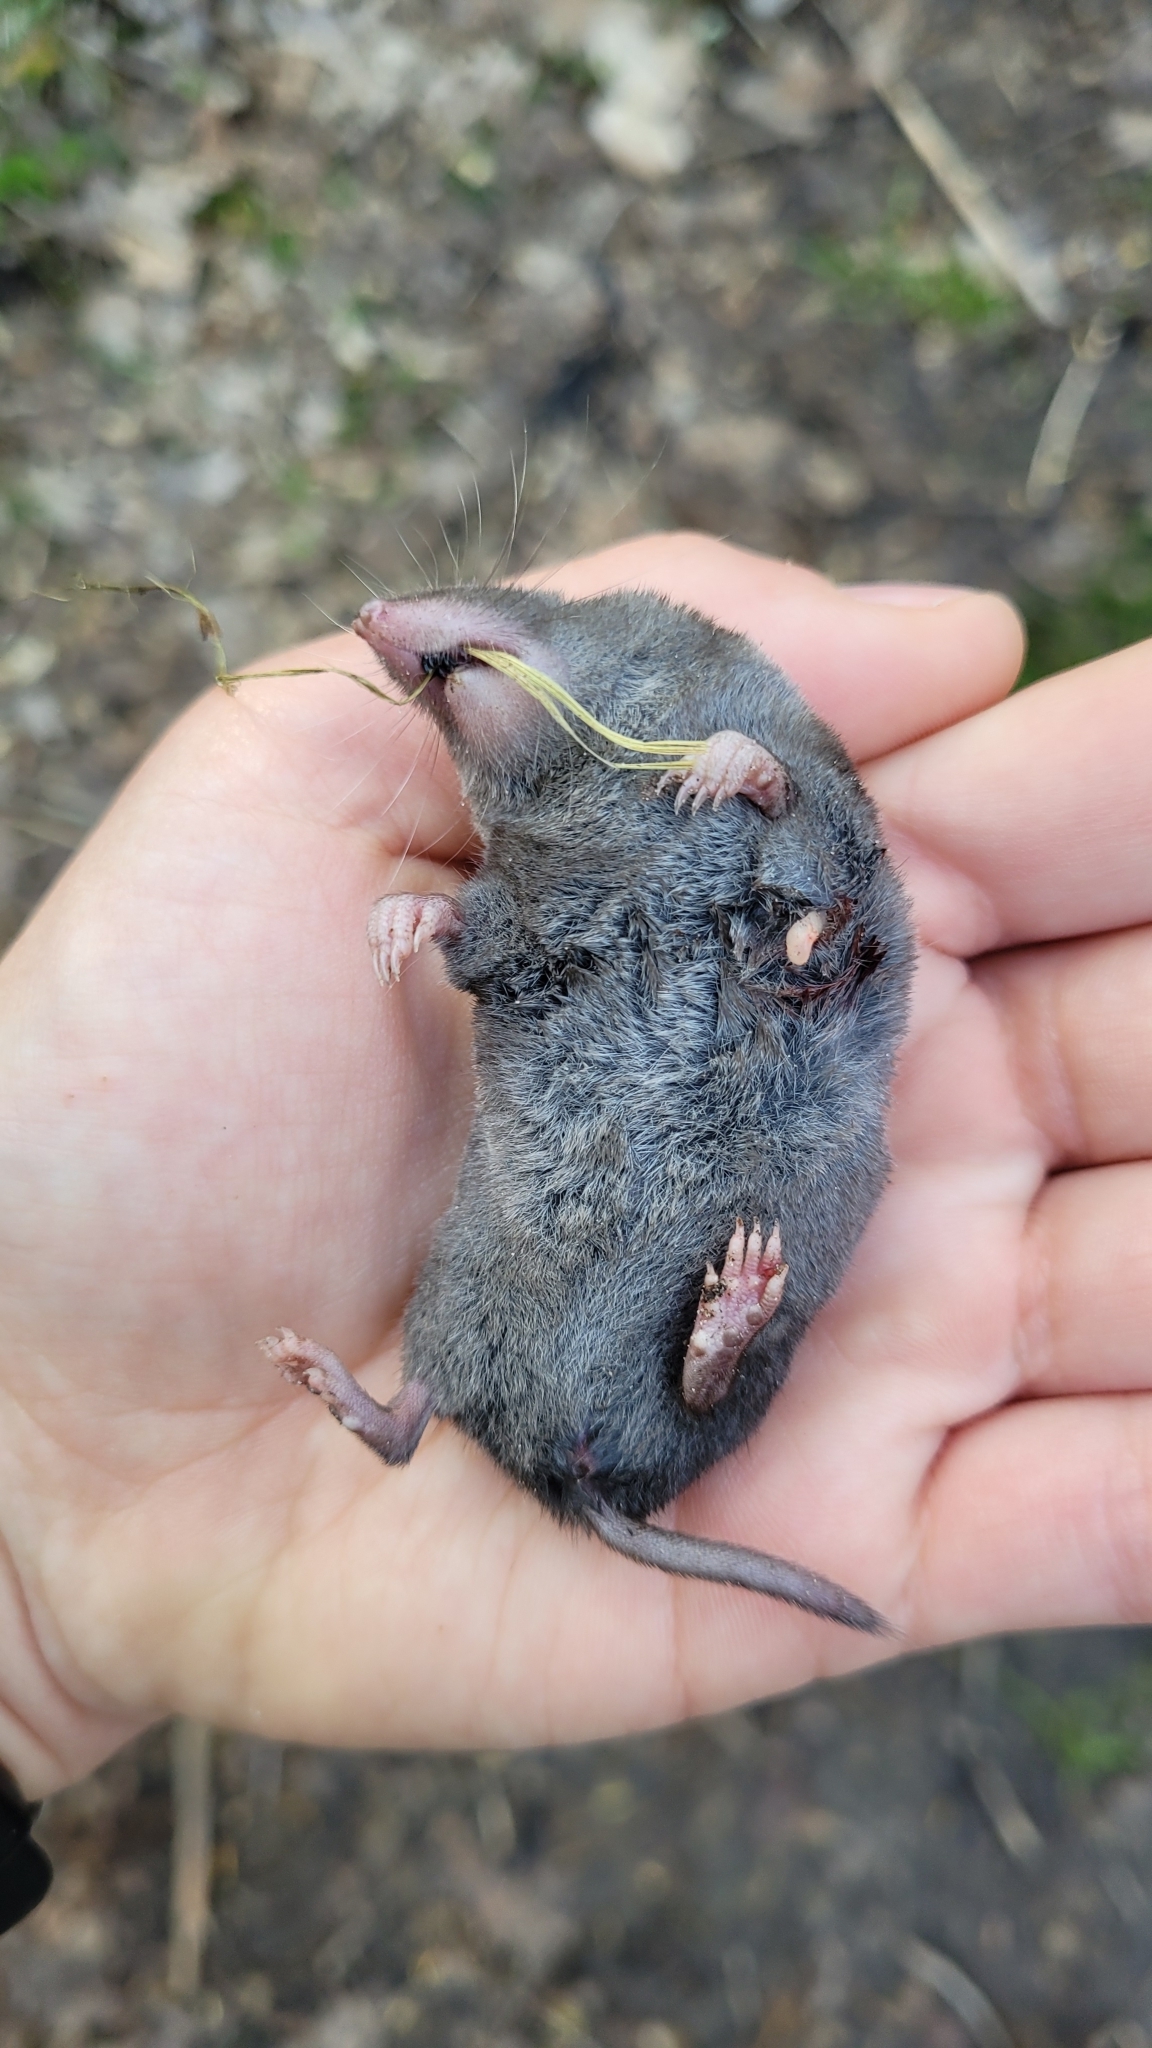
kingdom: Animalia
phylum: Chordata
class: Mammalia
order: Soricomorpha
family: Soricidae
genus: Blarina
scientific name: Blarina brevicauda
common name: Northern short-tailed shrew
